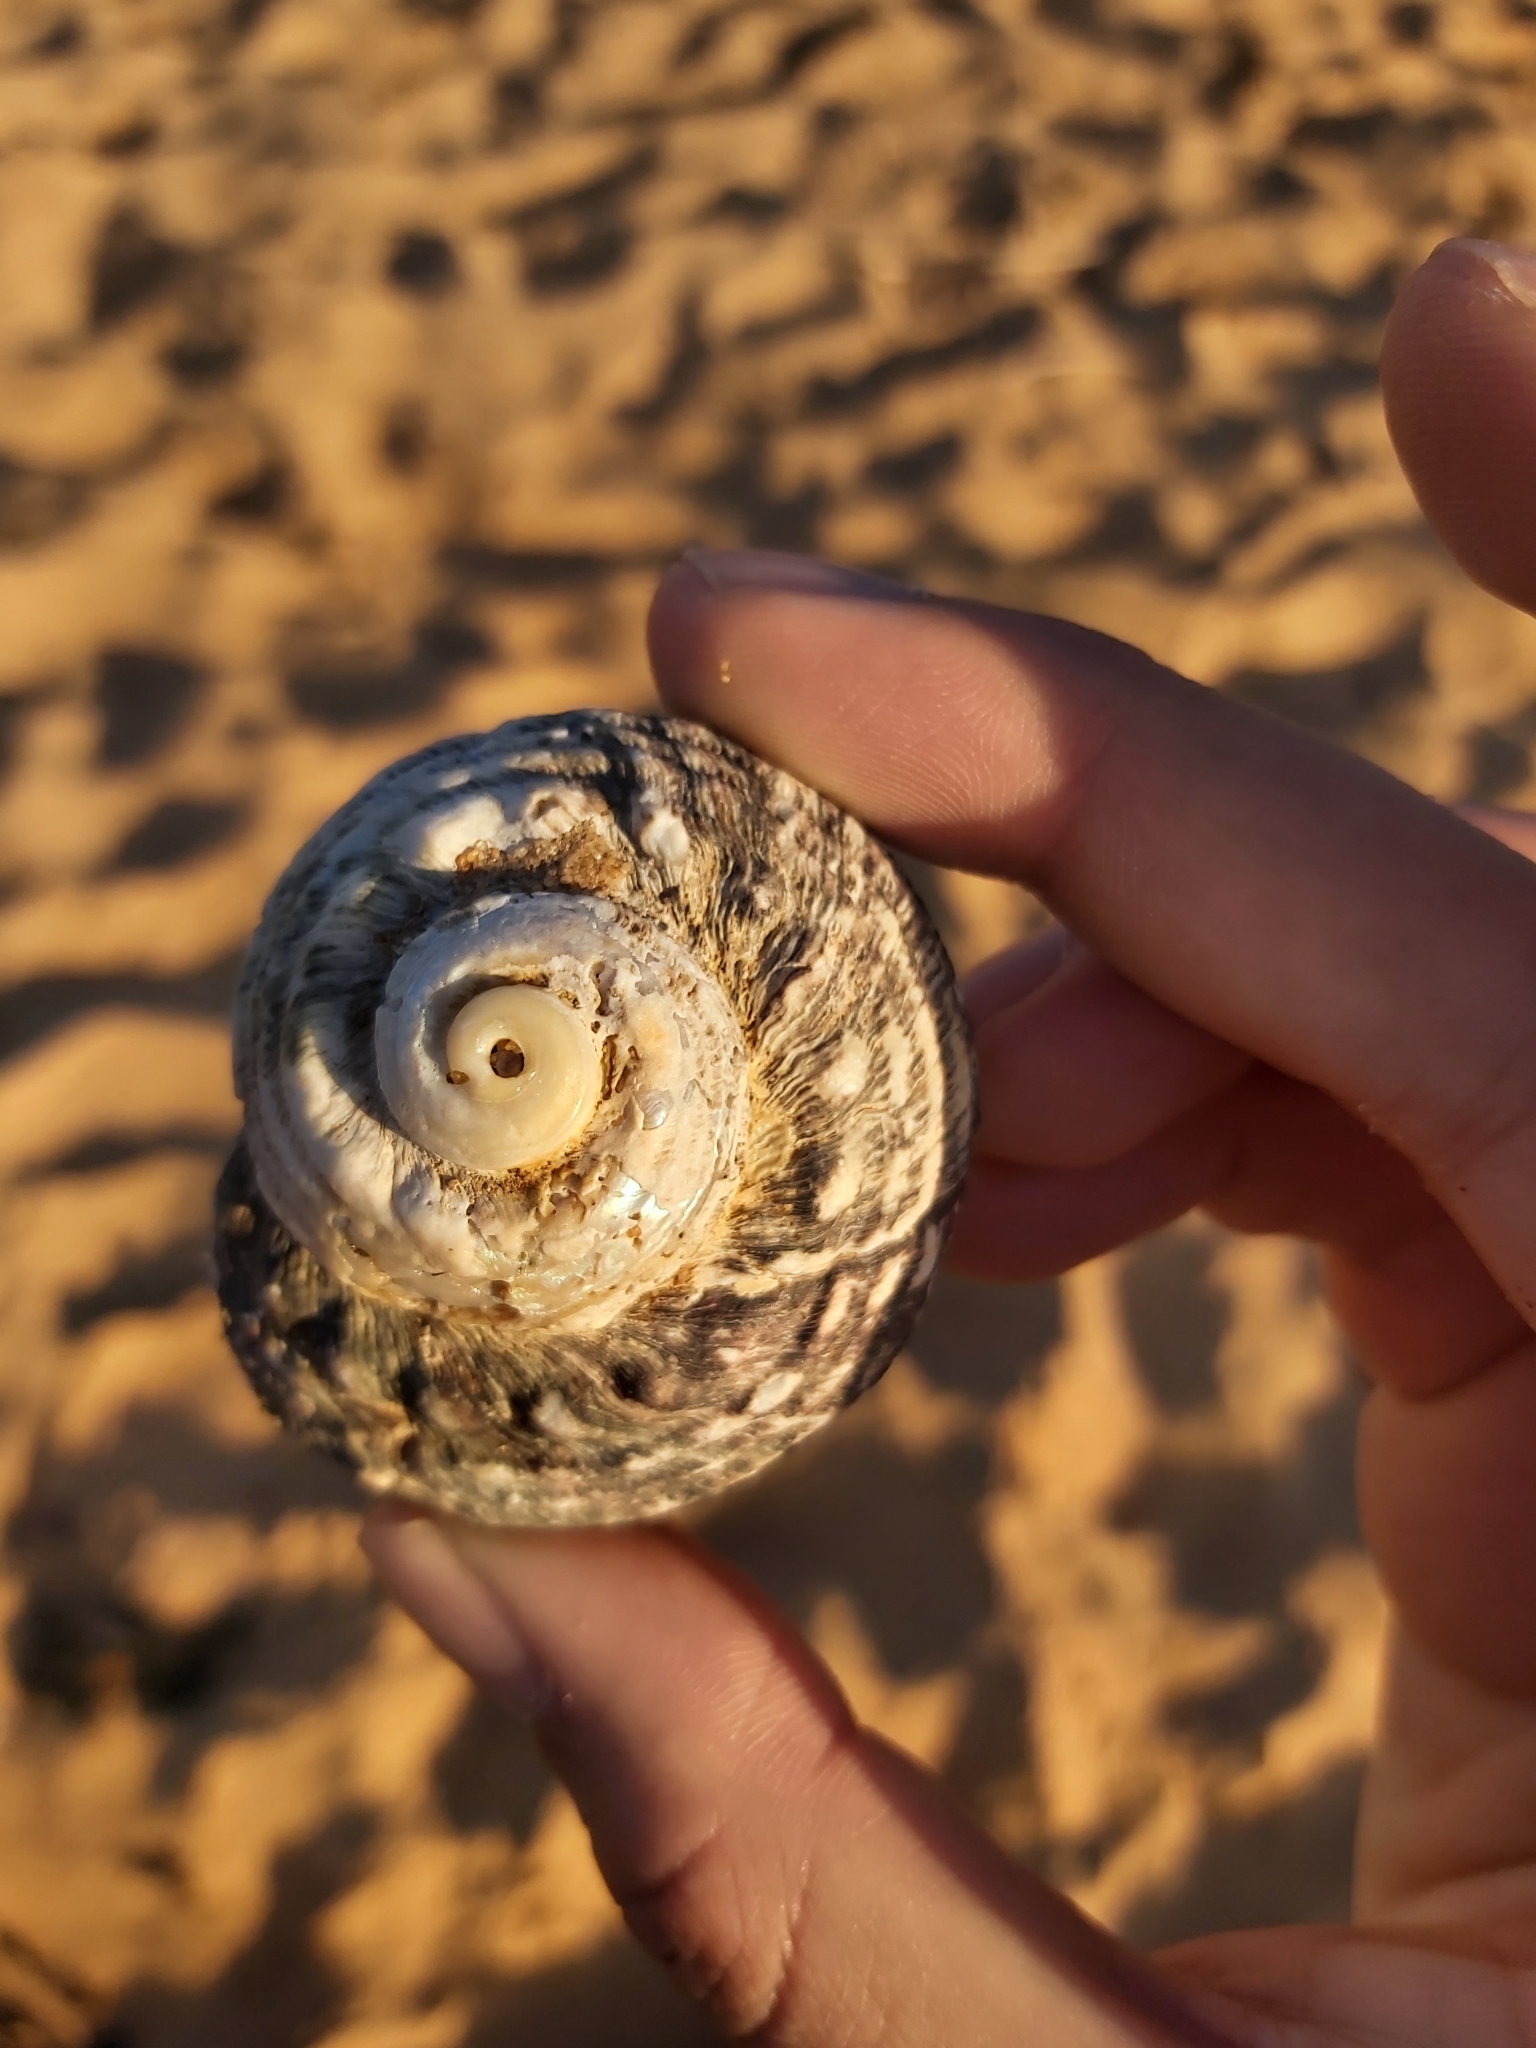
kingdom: Animalia
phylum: Mollusca
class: Gastropoda
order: Trochida
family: Turbinidae
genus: Lunella
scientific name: Lunella torquata
